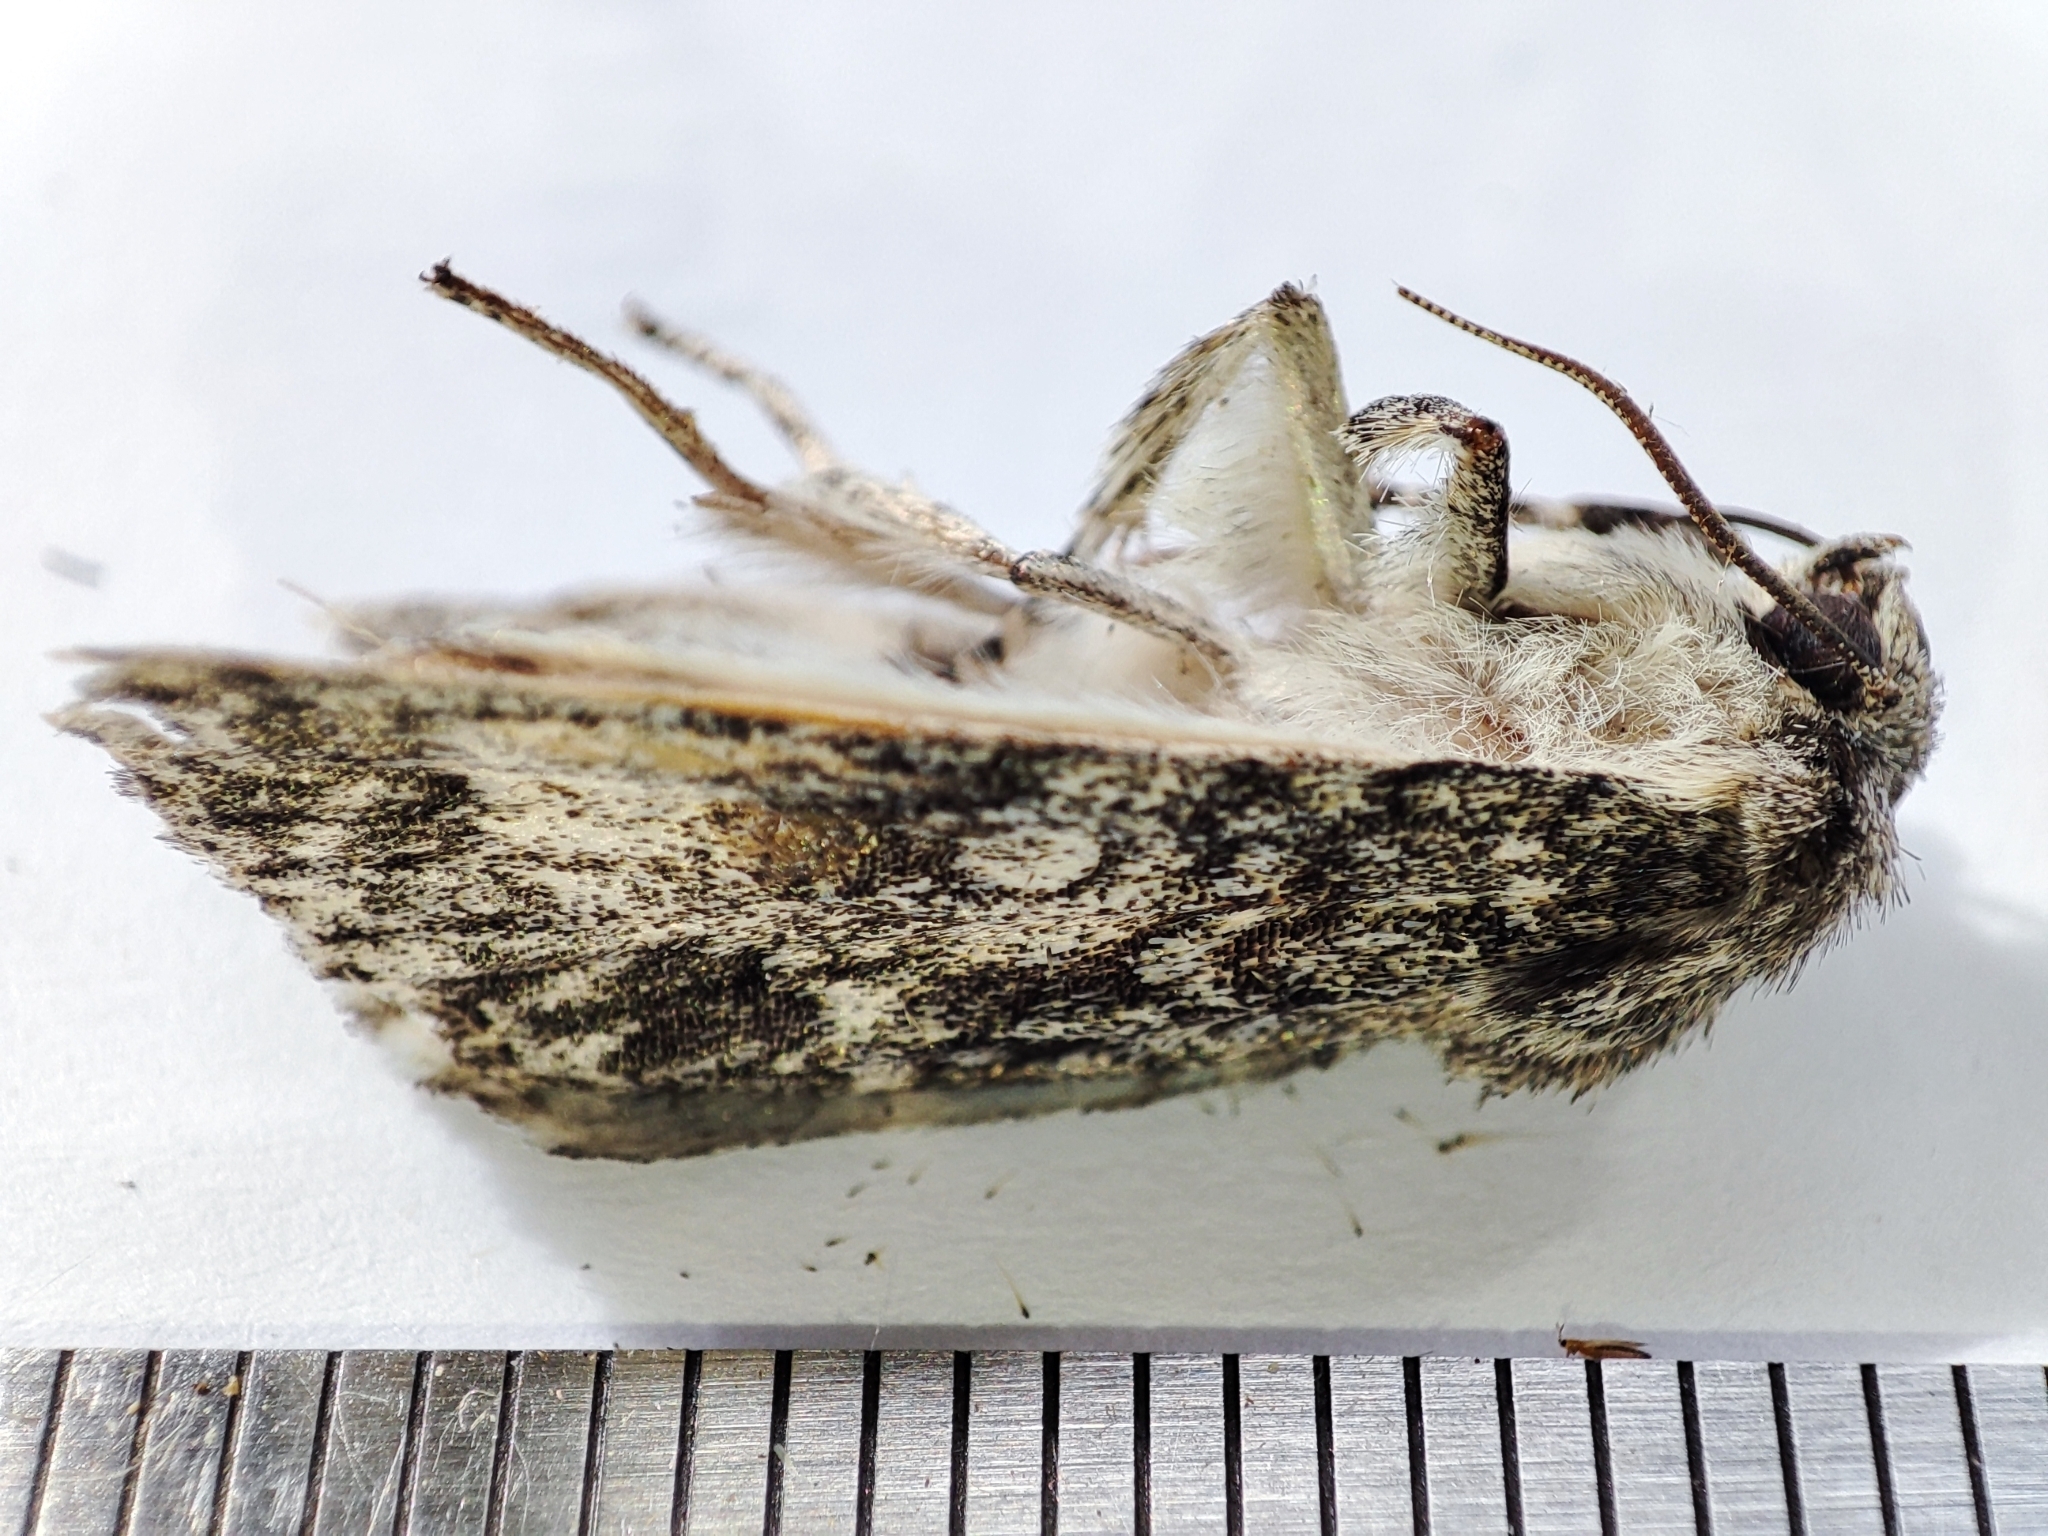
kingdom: Animalia
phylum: Arthropoda
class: Insecta
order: Lepidoptera
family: Noctuidae
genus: Acronicta
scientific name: Acronicta megacephala
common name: Poplar grey
